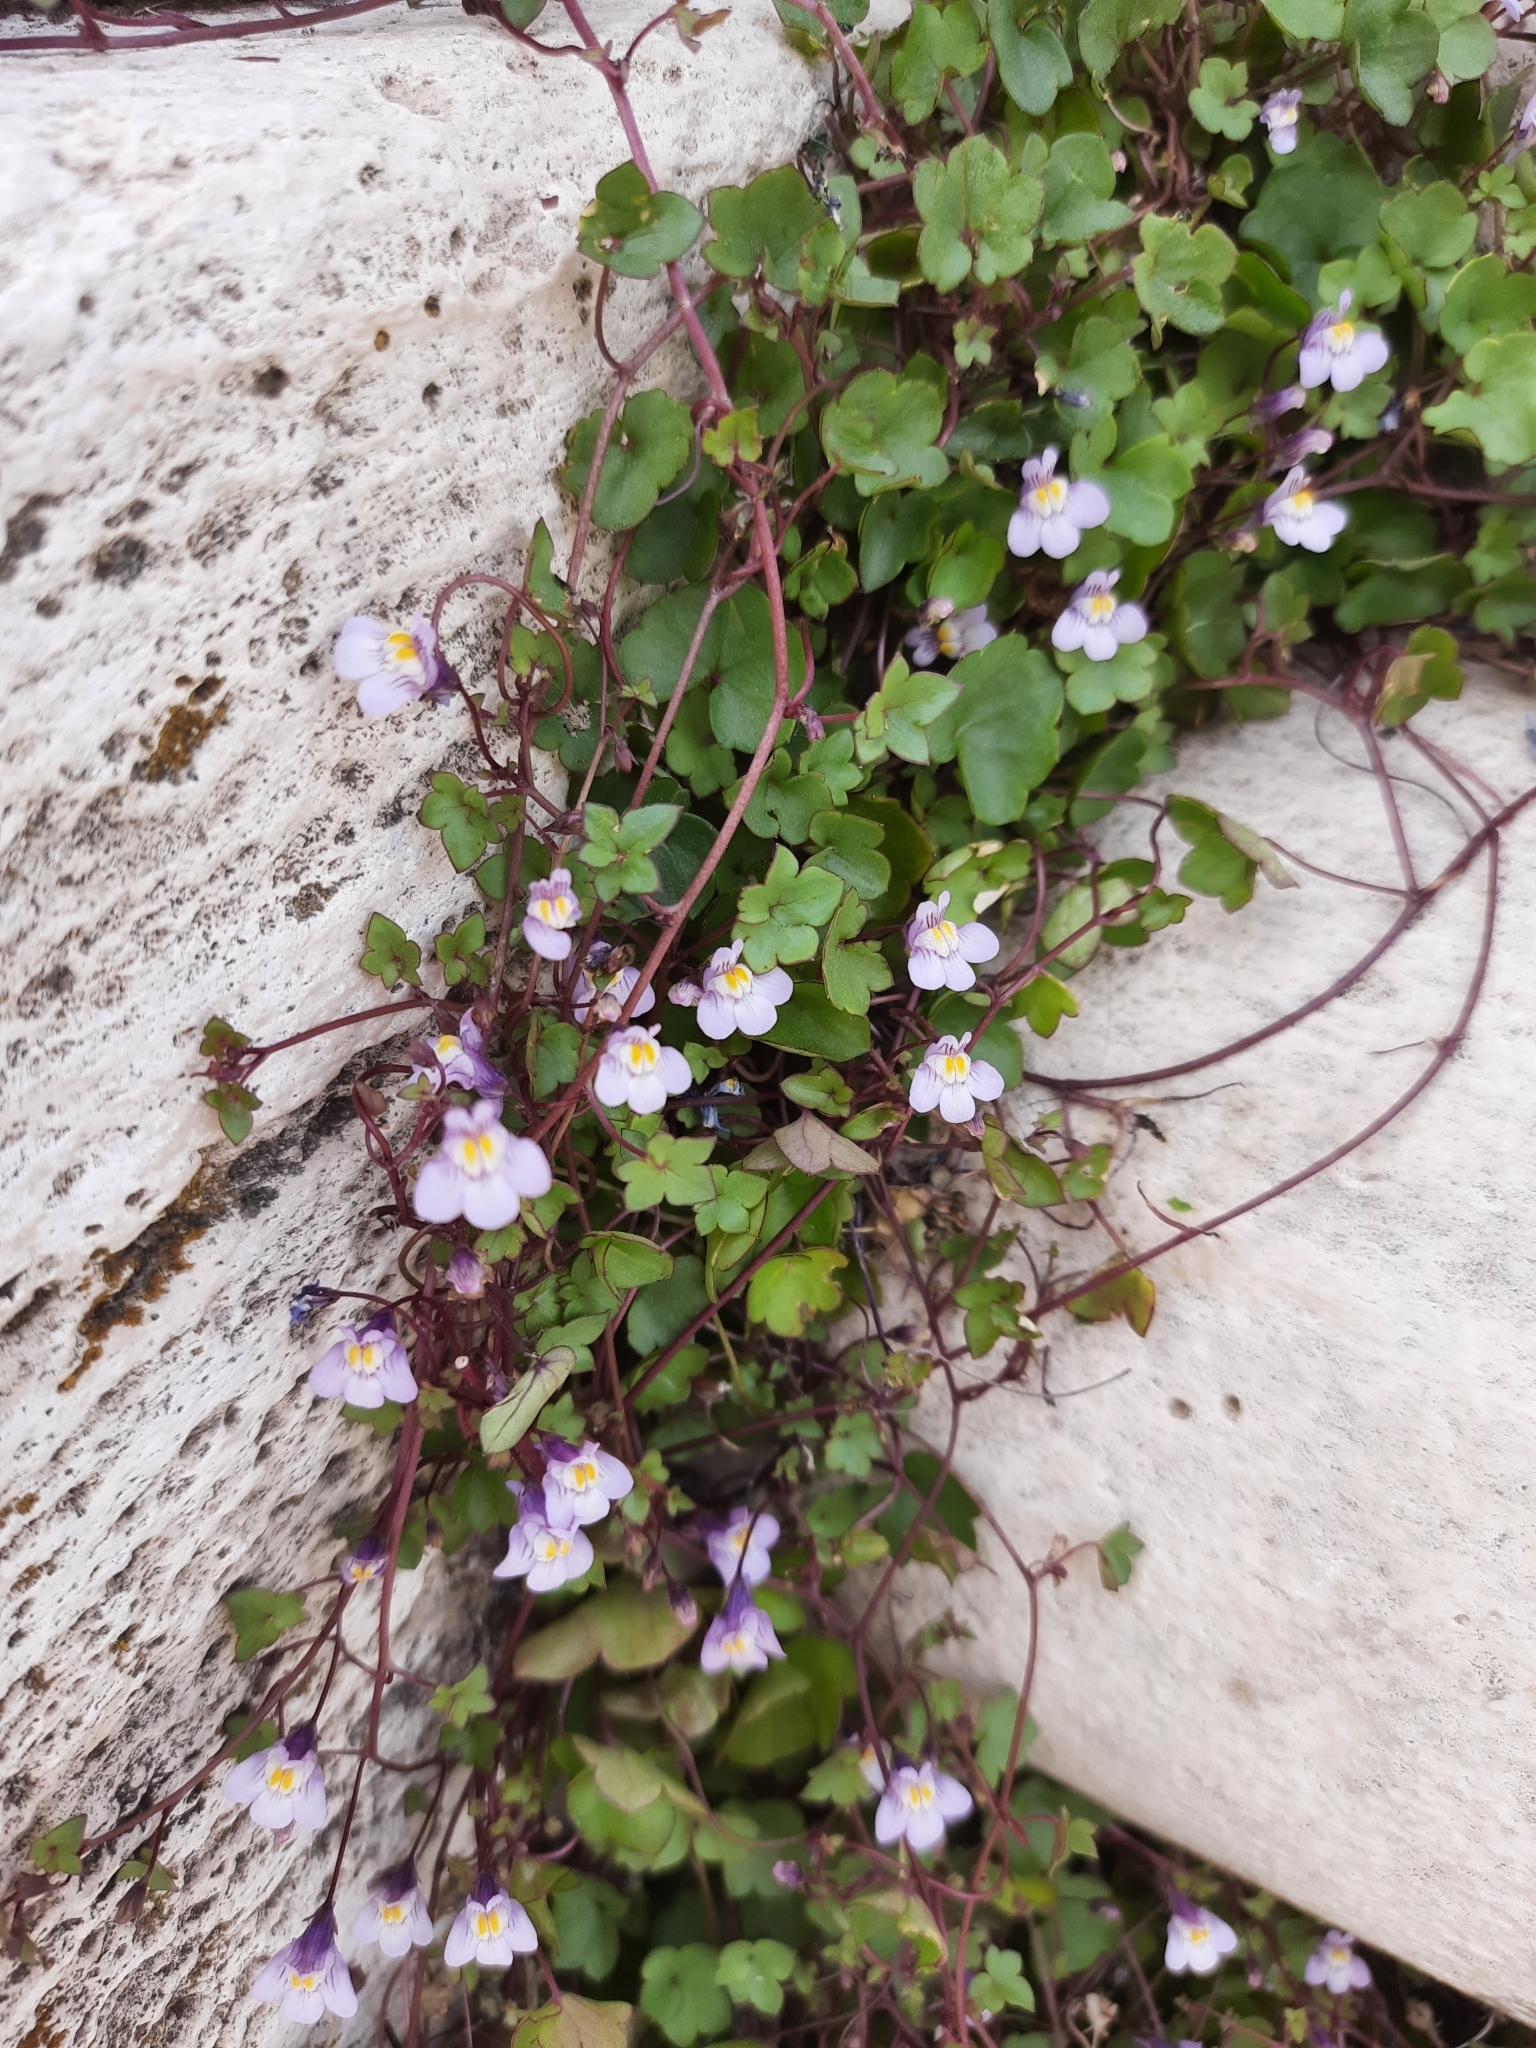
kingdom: Plantae
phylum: Tracheophyta
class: Magnoliopsida
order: Lamiales
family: Plantaginaceae
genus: Cymbalaria
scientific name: Cymbalaria muralis
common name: Ivy-leaved toadflax
